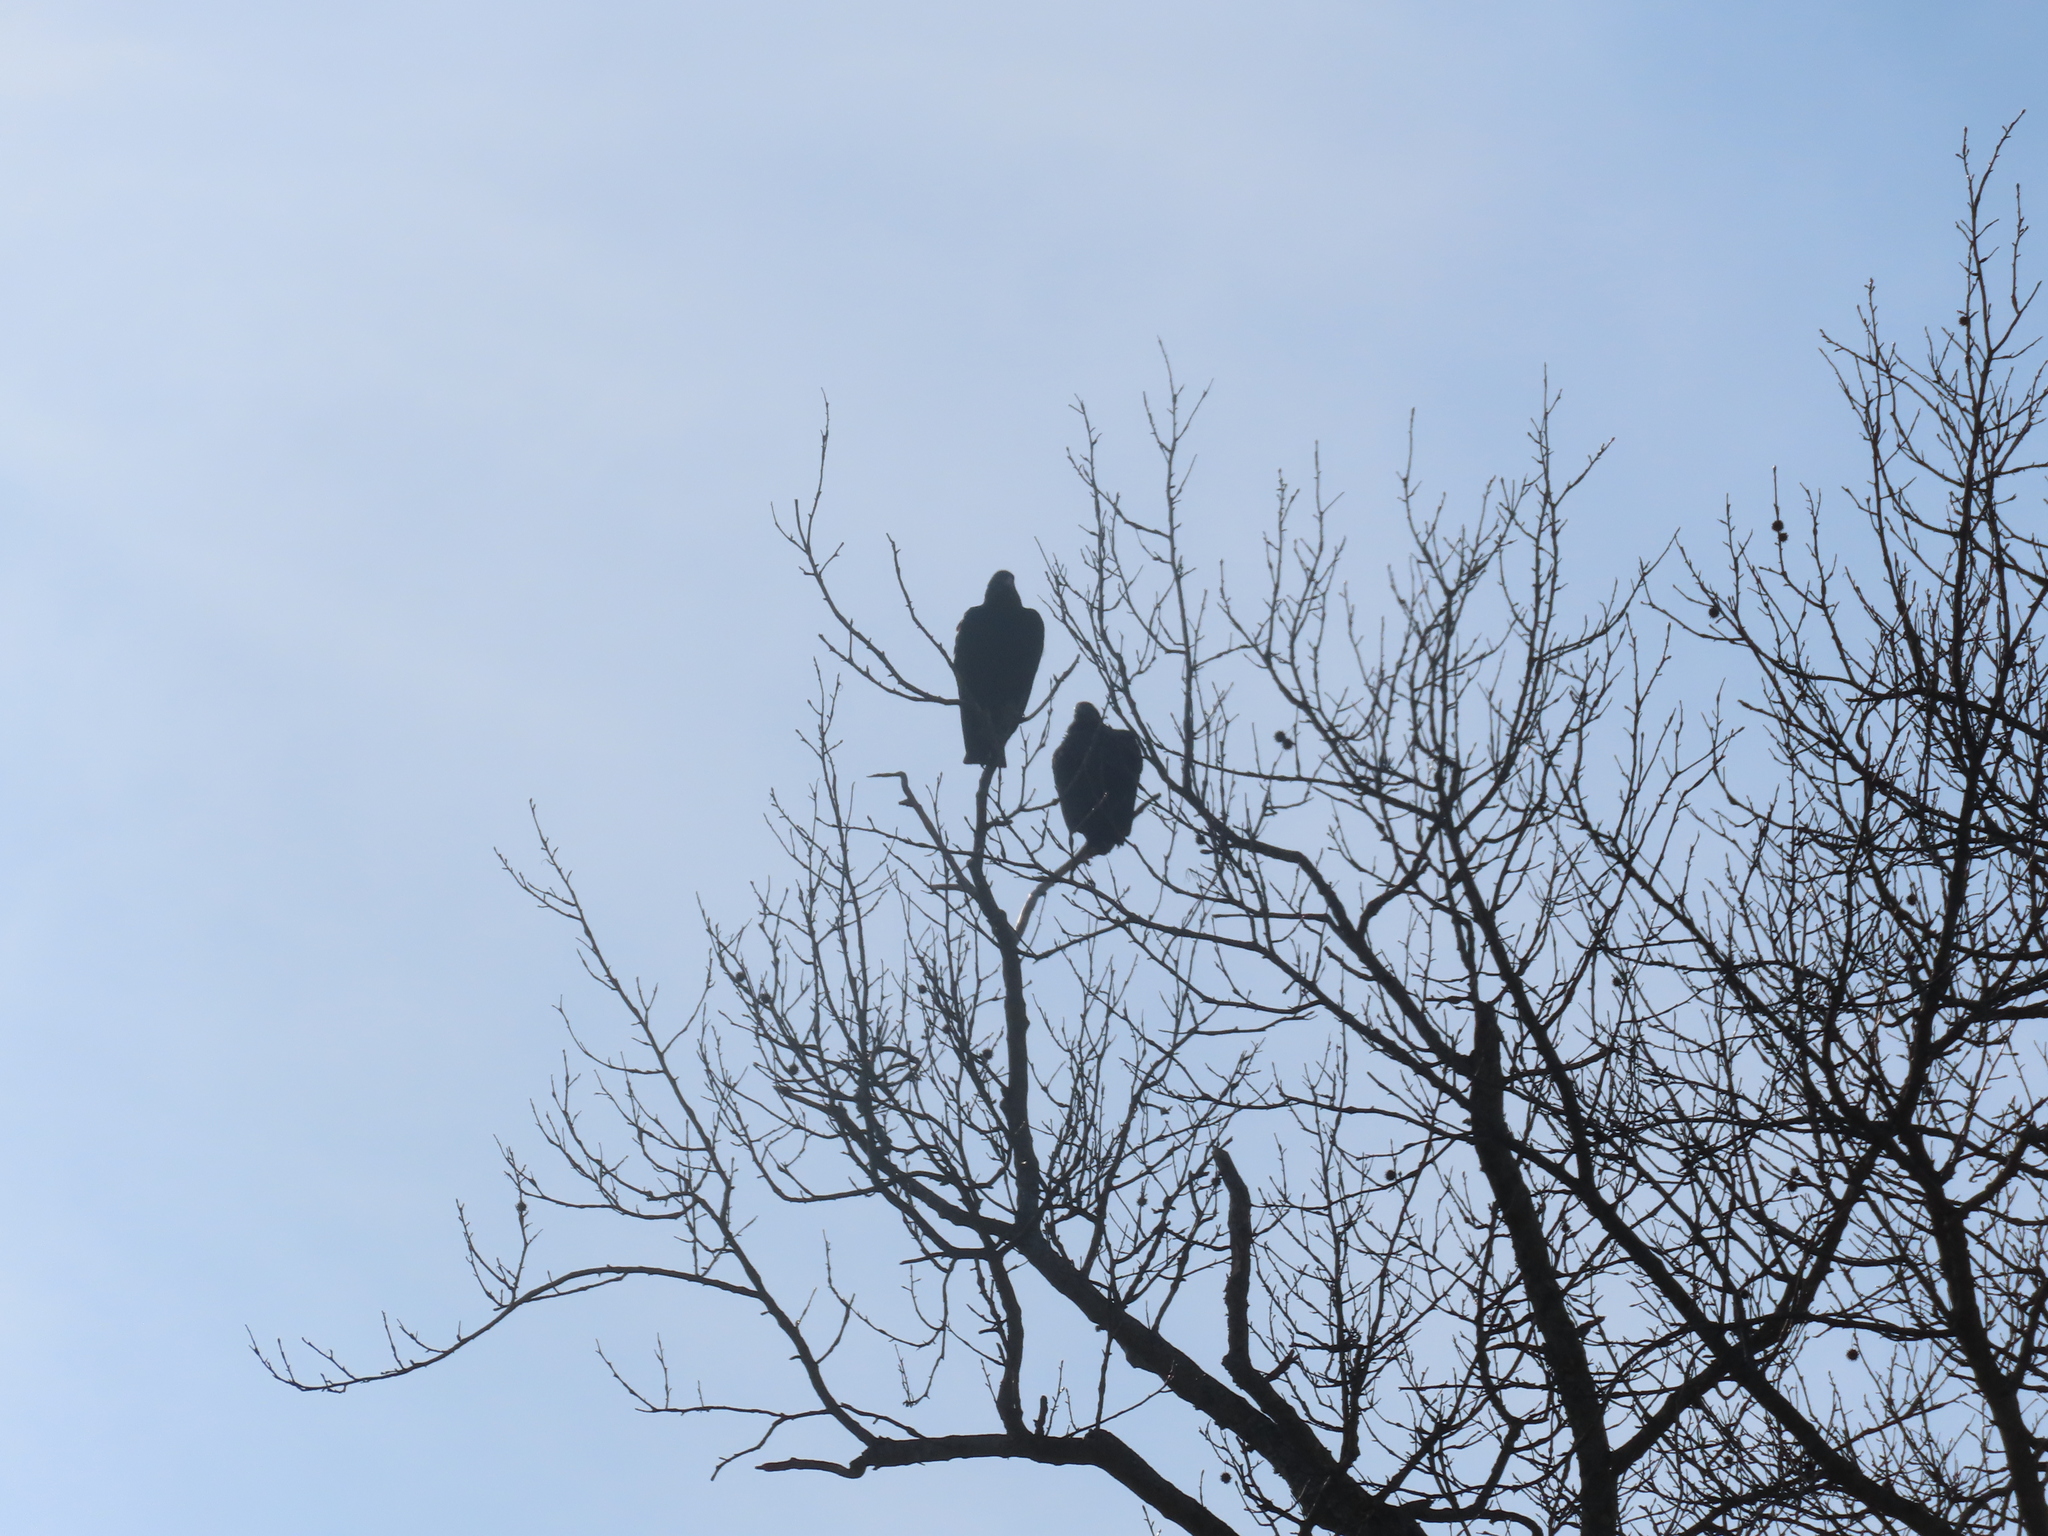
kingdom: Animalia
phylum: Chordata
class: Aves
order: Accipitriformes
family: Cathartidae
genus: Coragyps
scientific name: Coragyps atratus
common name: Black vulture
